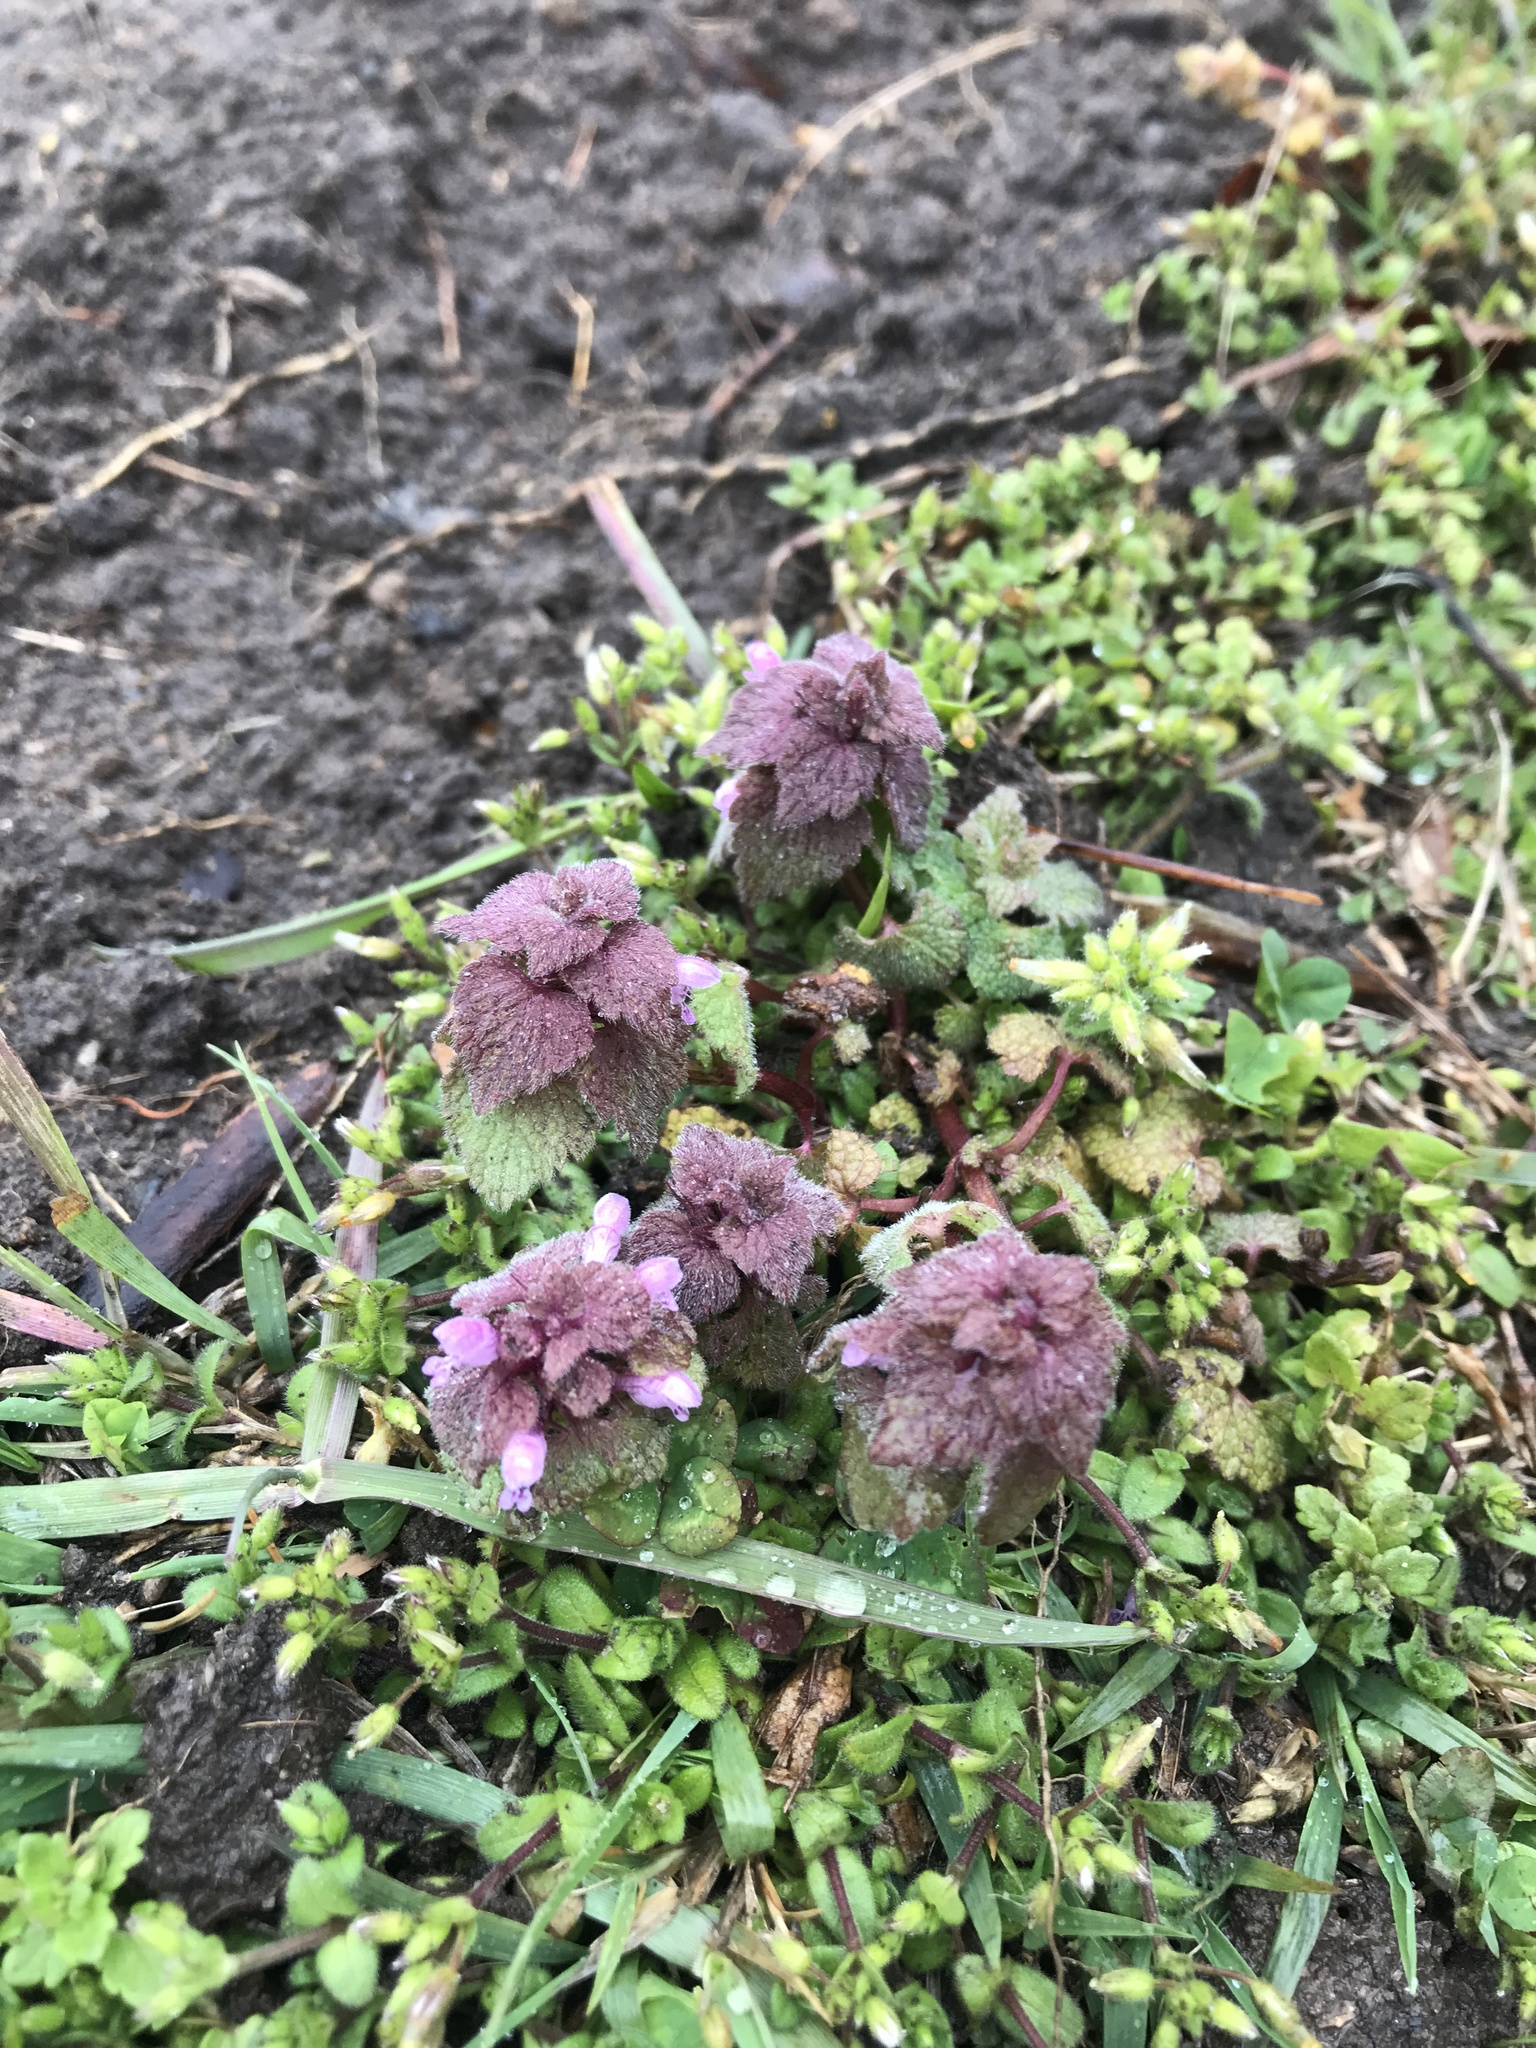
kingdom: Plantae
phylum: Tracheophyta
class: Magnoliopsida
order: Lamiales
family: Lamiaceae
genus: Lamium
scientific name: Lamium purpureum
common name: Red dead-nettle
